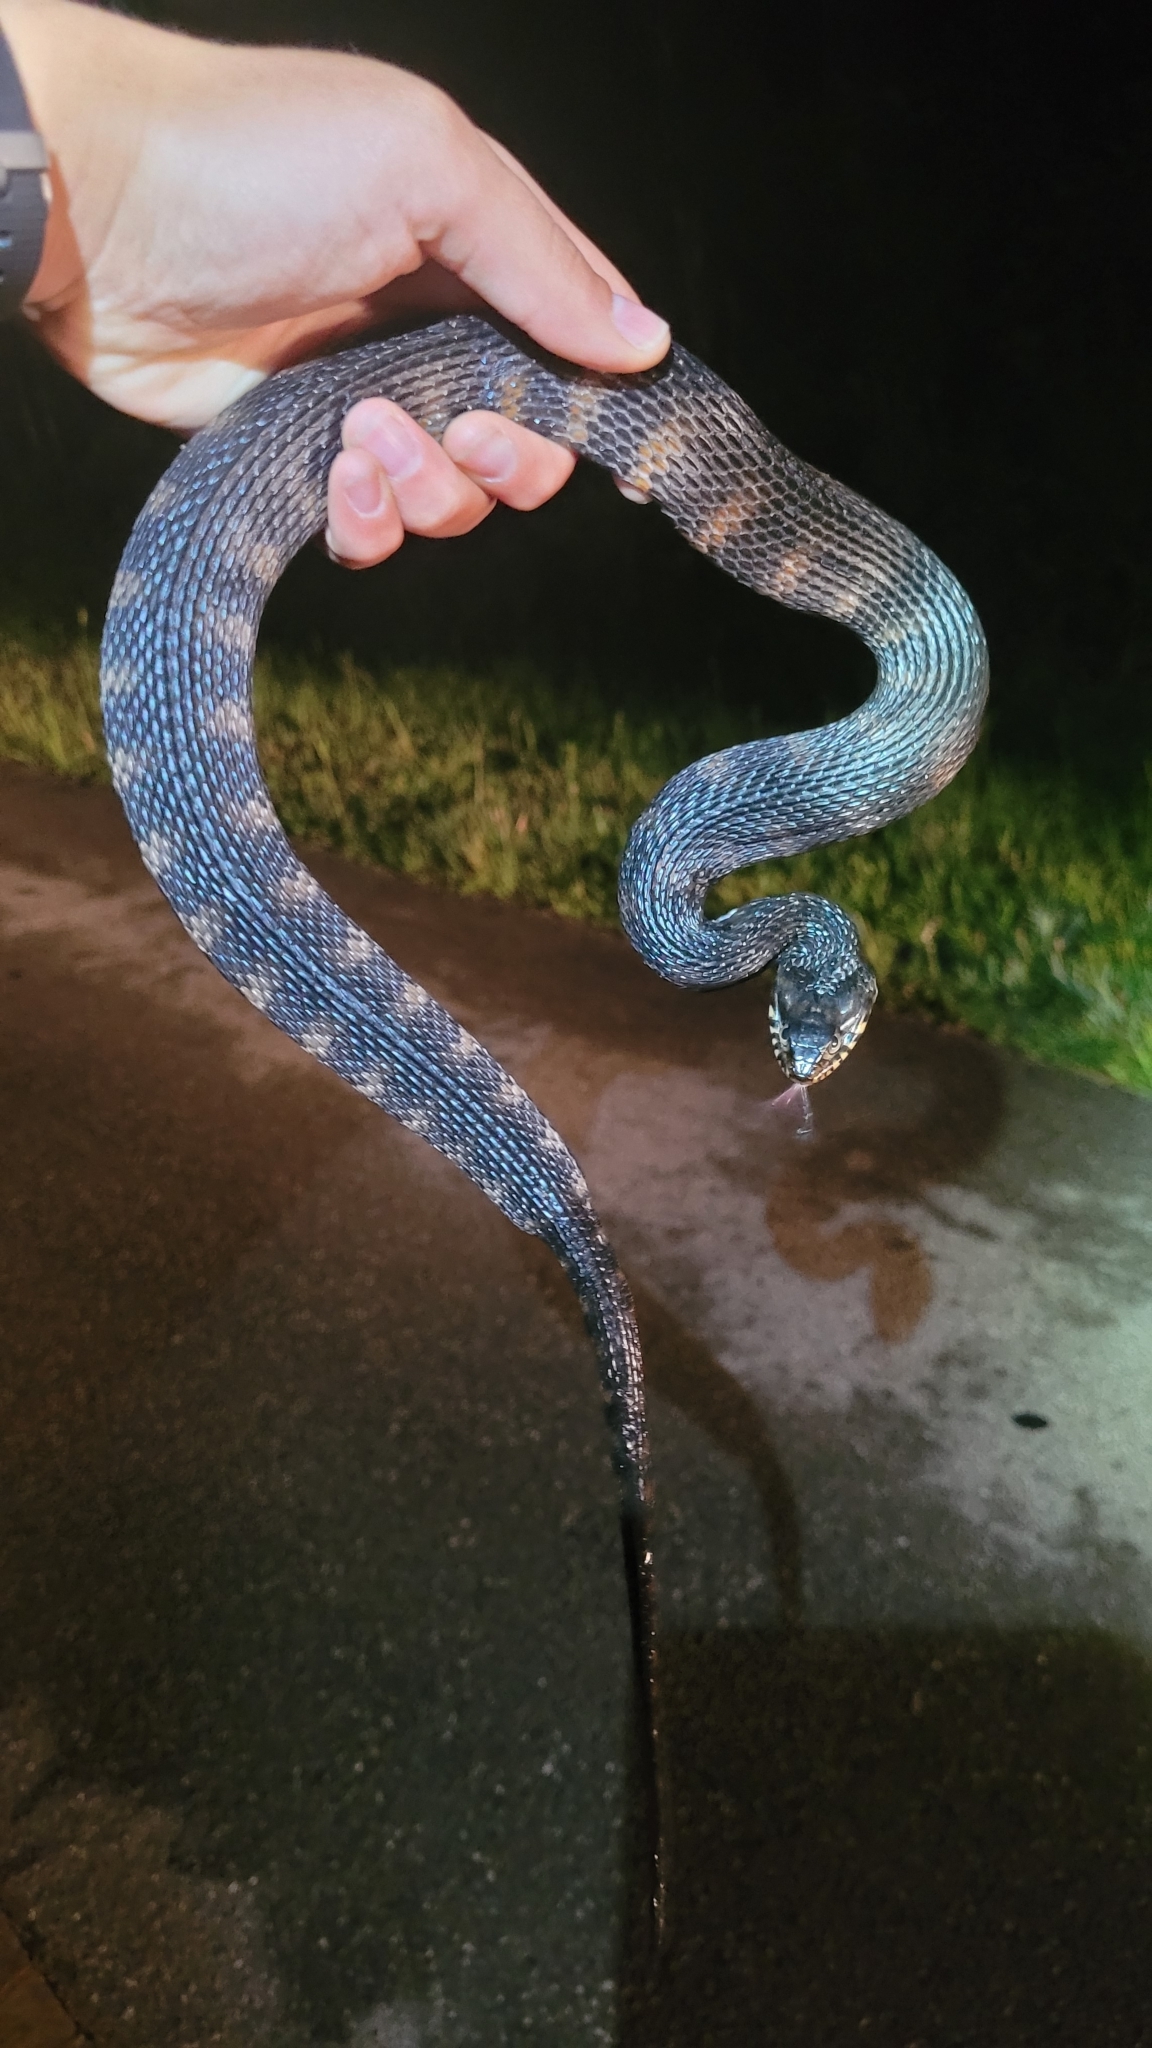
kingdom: Animalia
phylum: Chordata
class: Squamata
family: Colubridae
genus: Nerodia
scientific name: Nerodia fasciata
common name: Southern water snake
